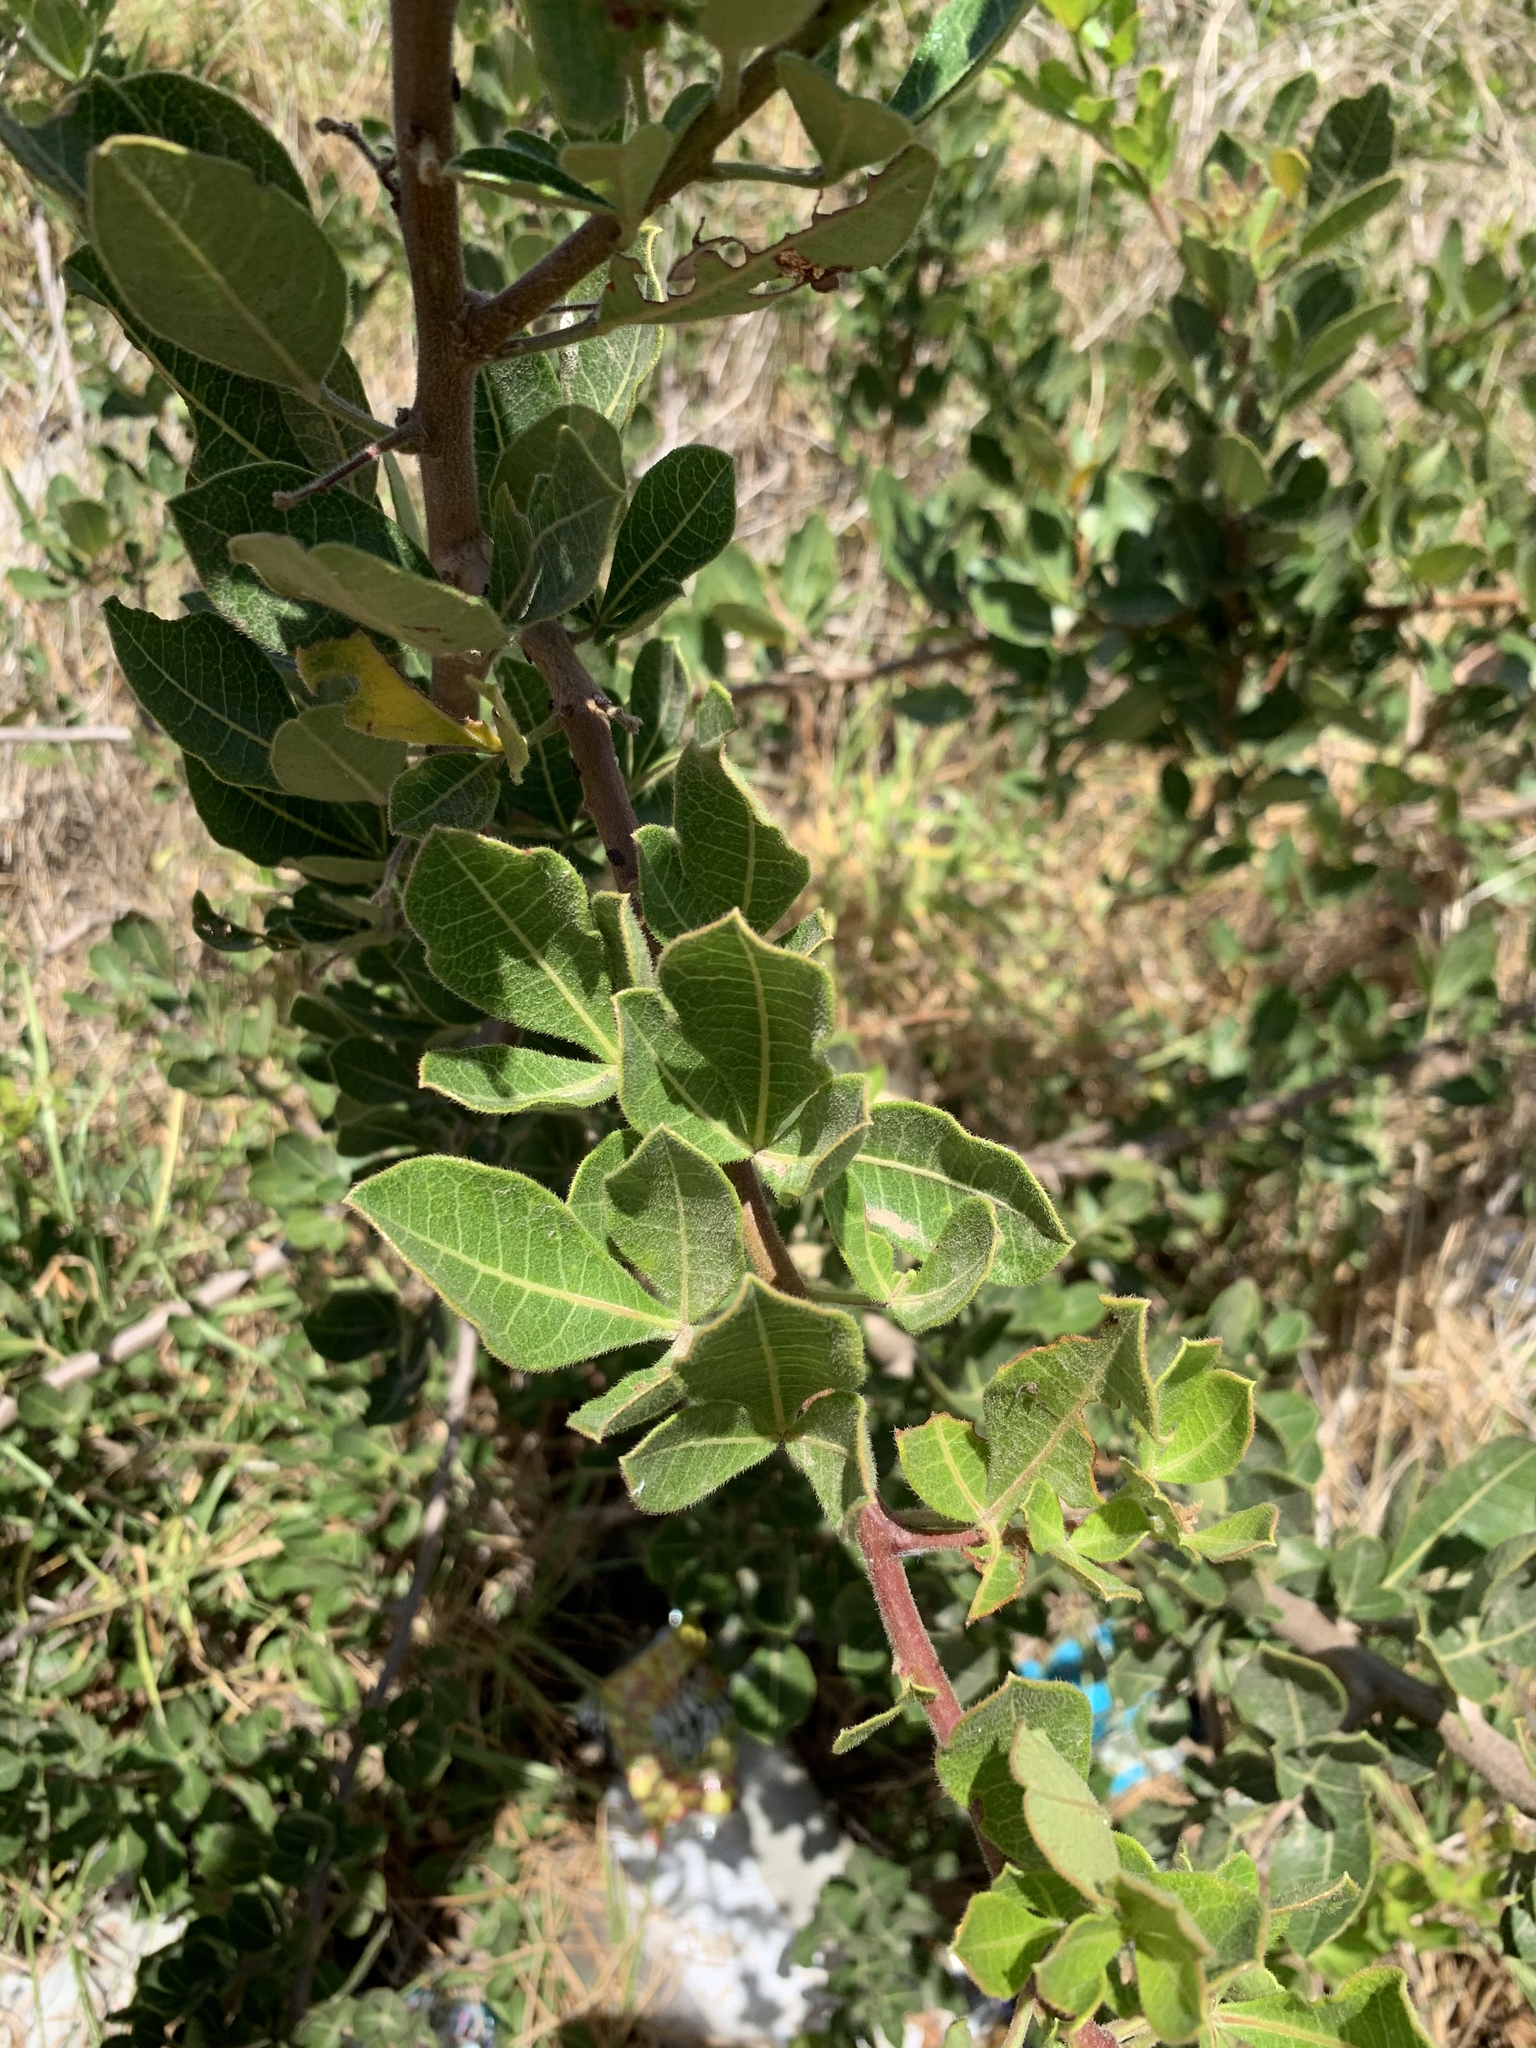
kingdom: Plantae
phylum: Tracheophyta
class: Magnoliopsida
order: Sapindales
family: Anacardiaceae
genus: Searsia
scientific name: Searsia laevigata
